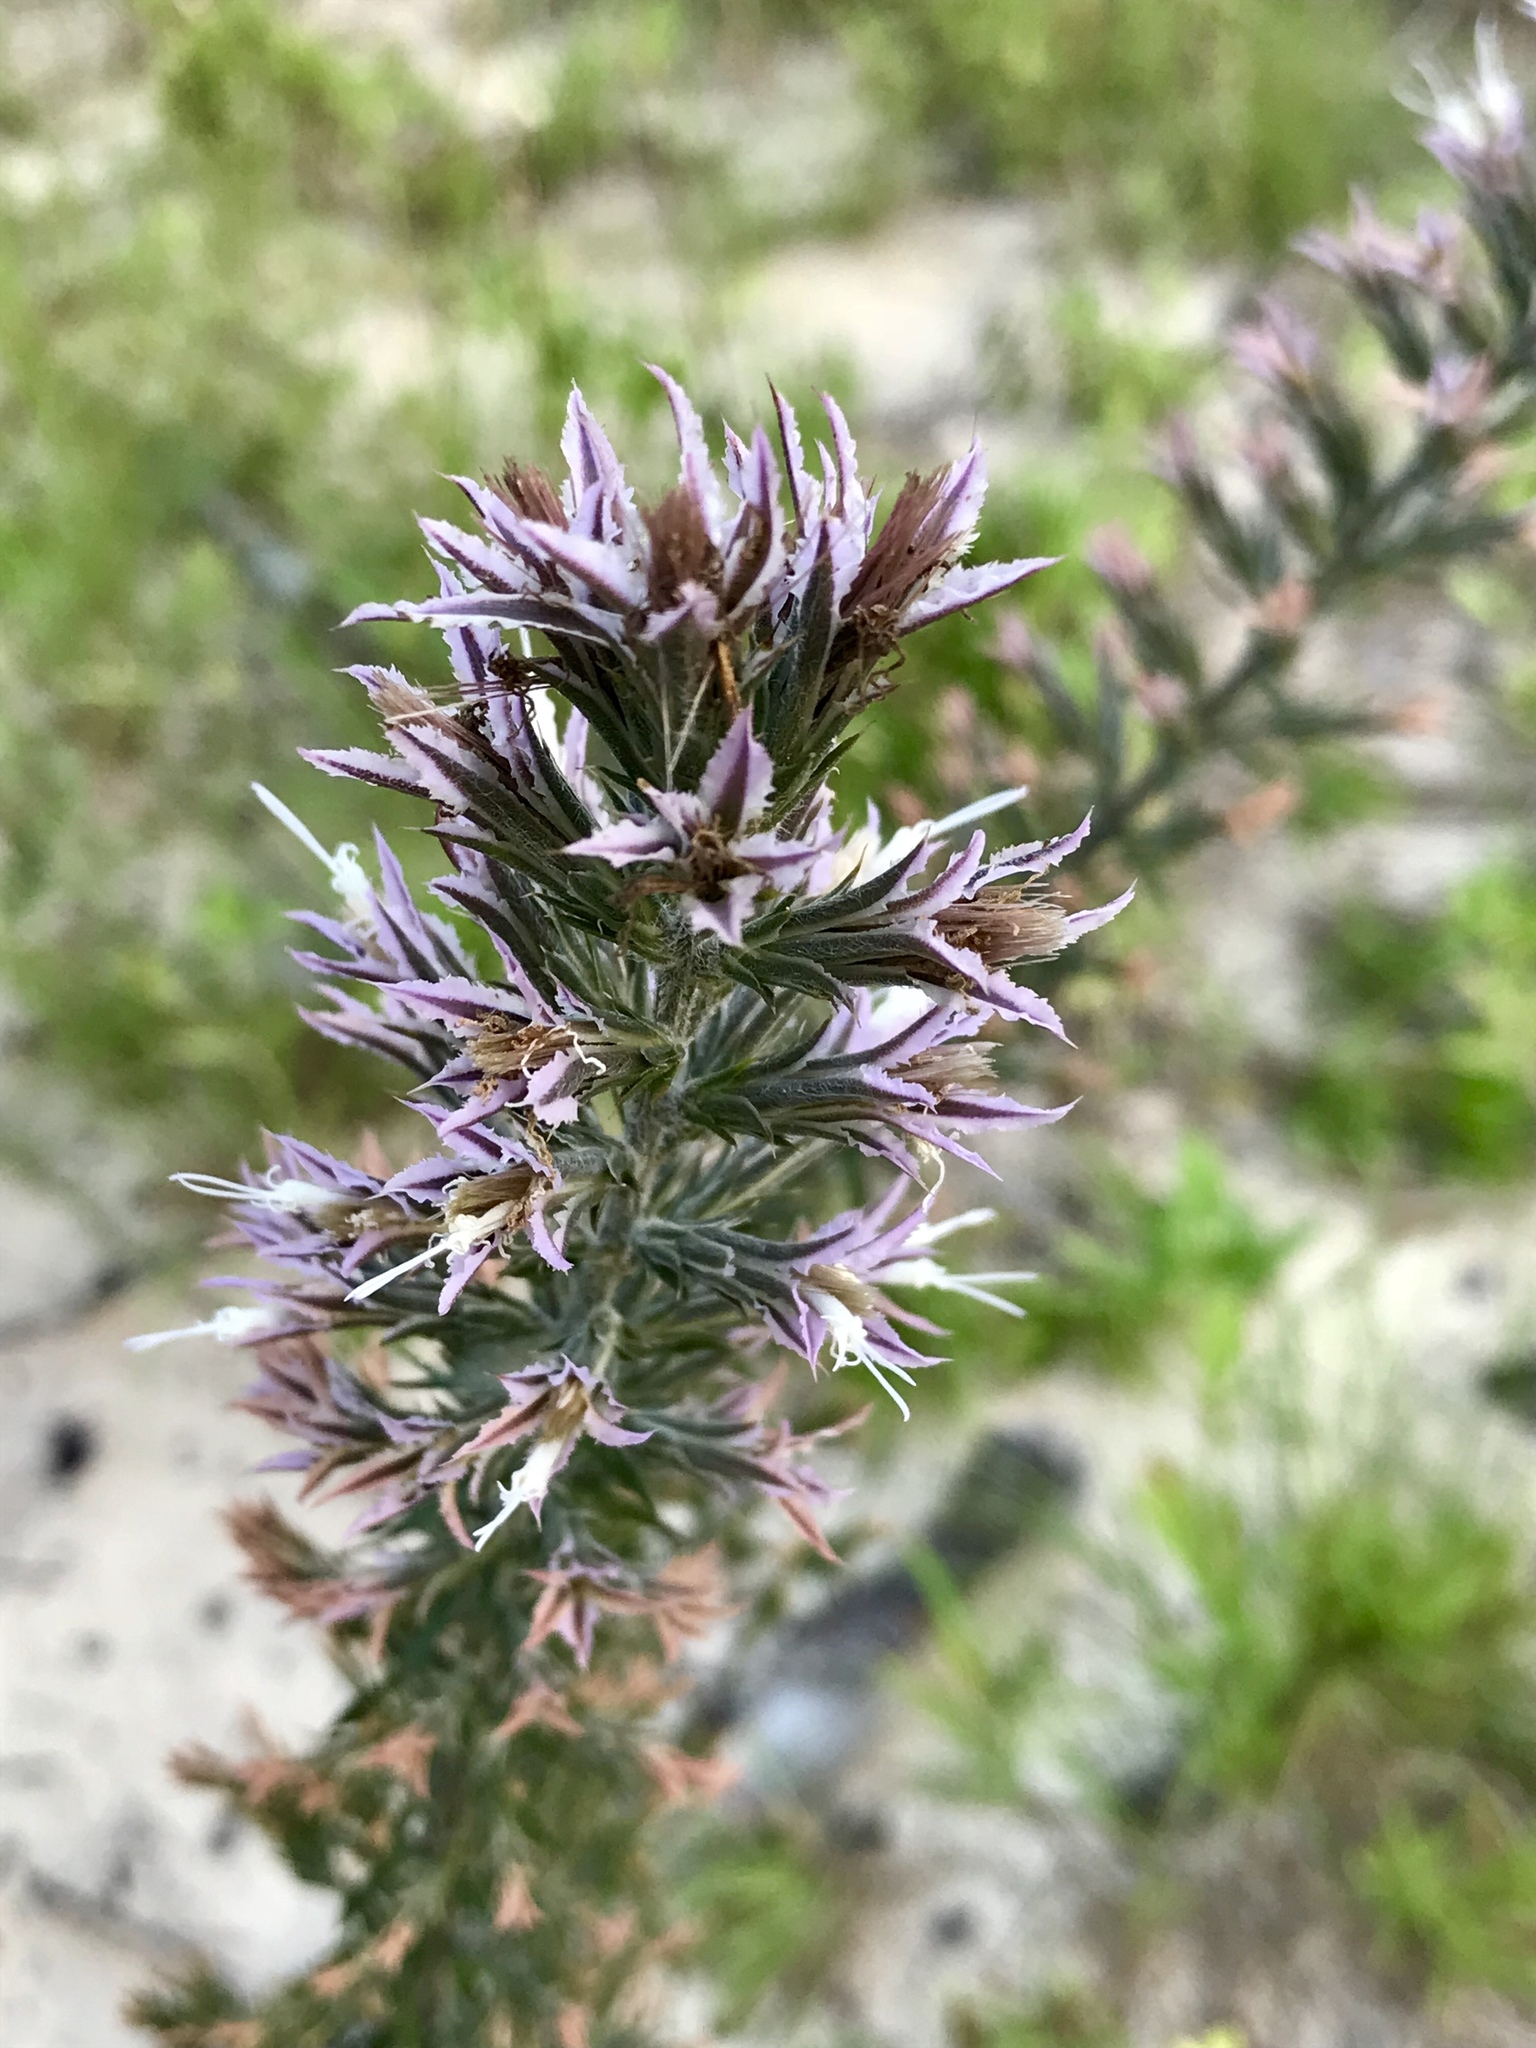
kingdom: Plantae
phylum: Tracheophyta
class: Magnoliopsida
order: Asterales
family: Asteraceae
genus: Liatris
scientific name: Liatris hesperelegans
